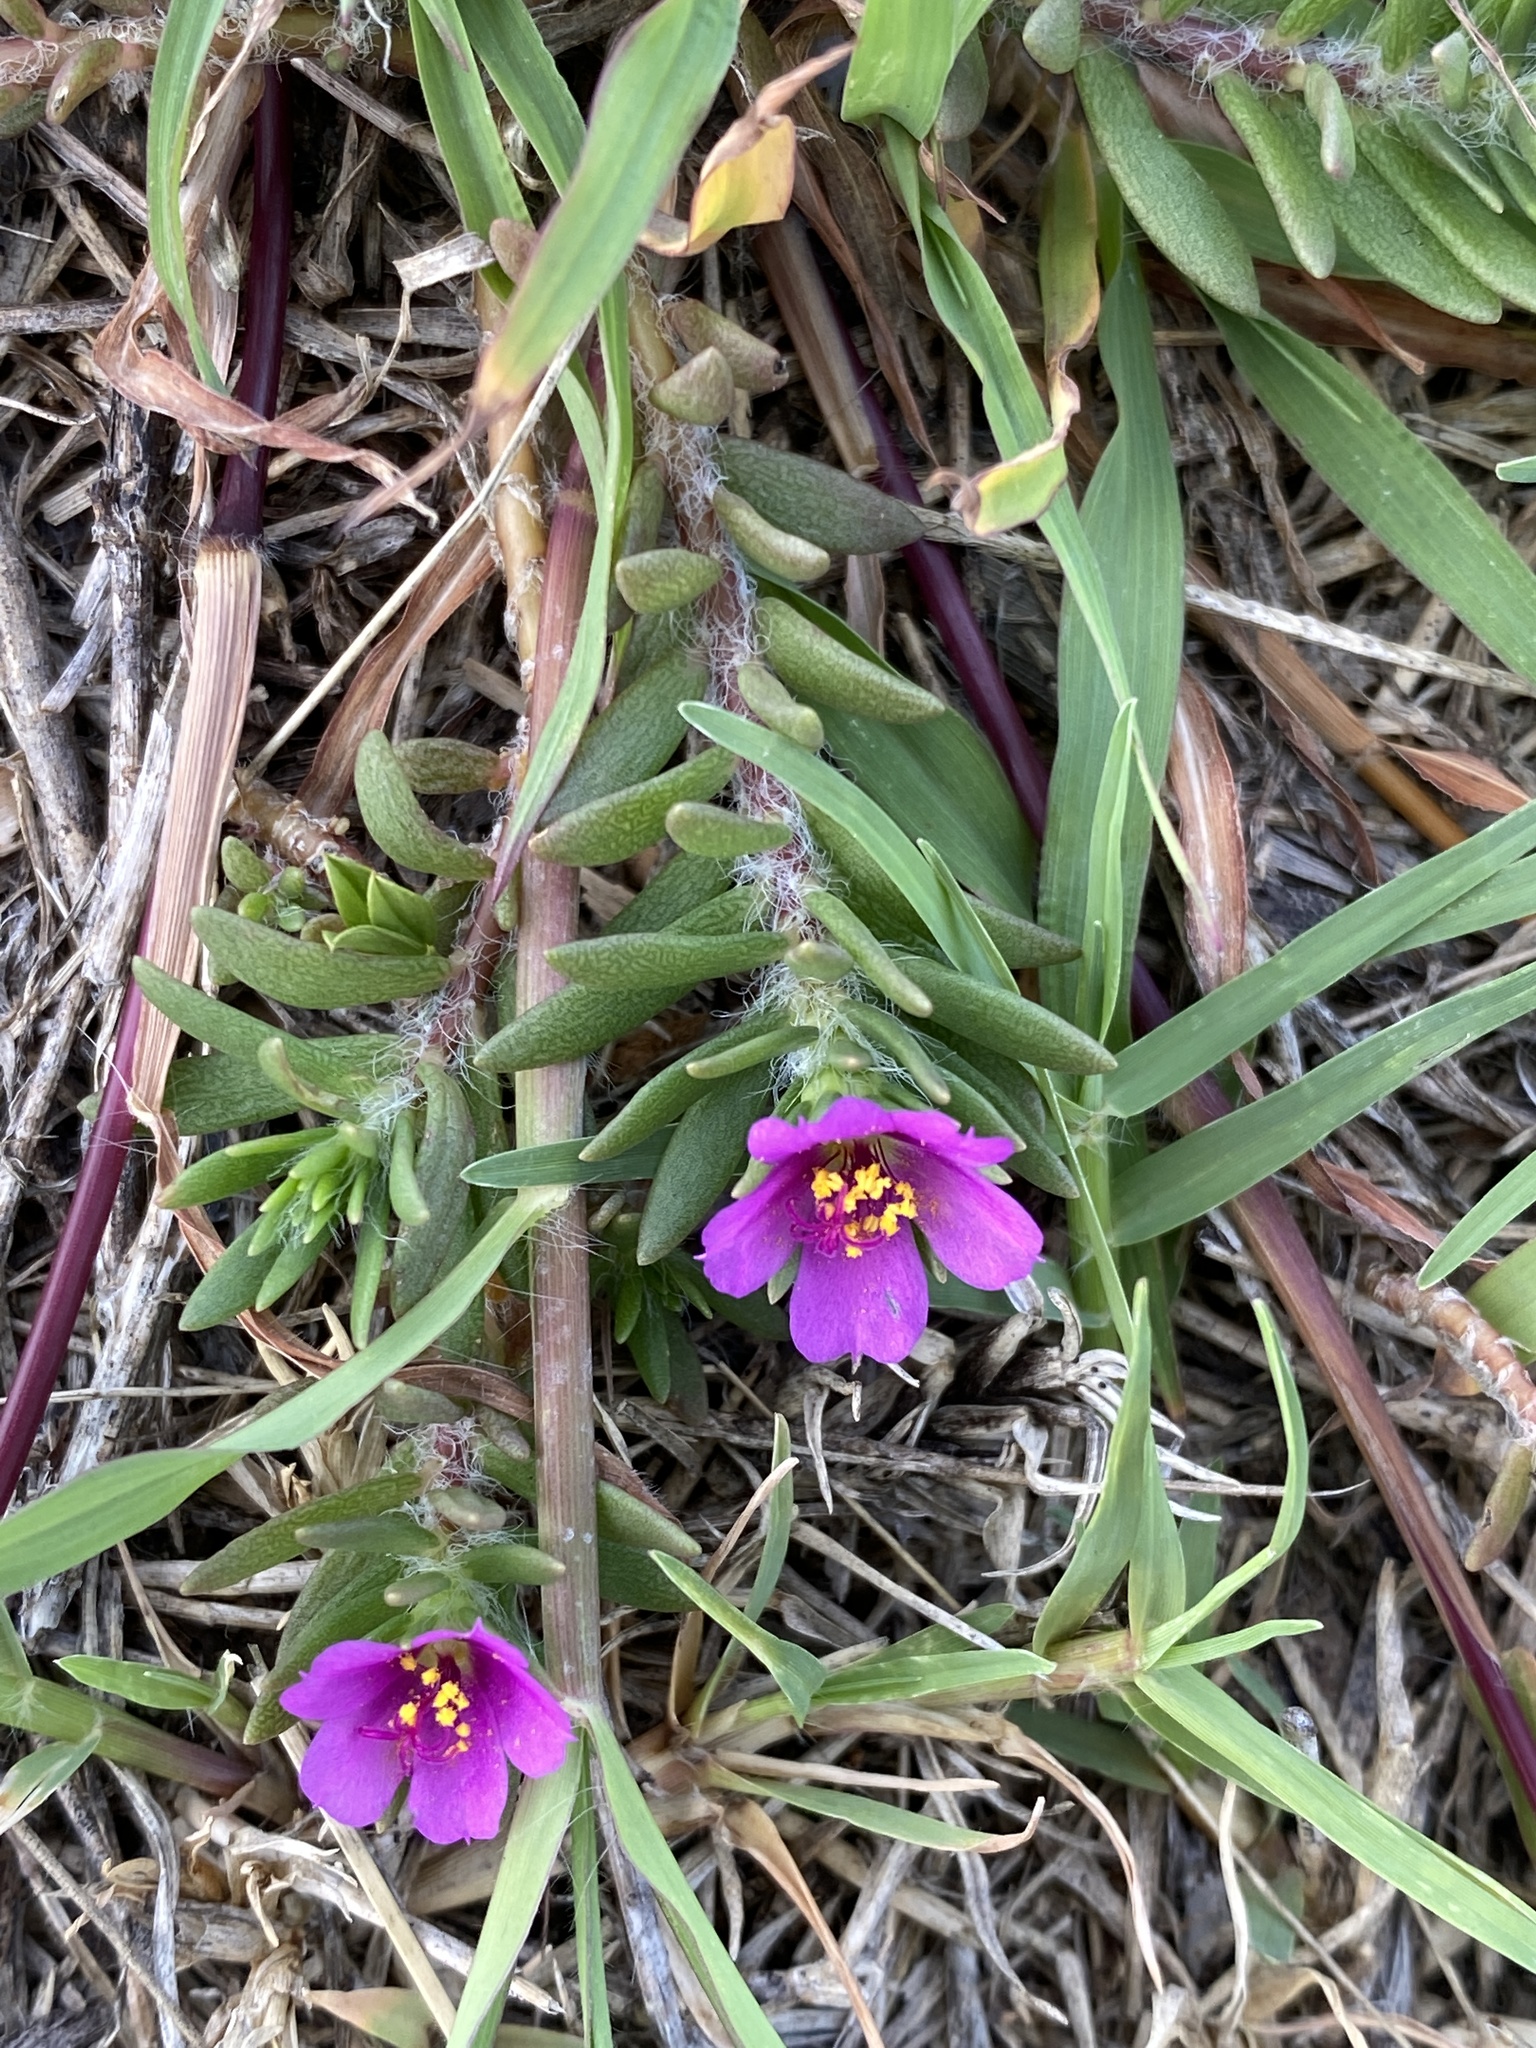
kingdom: Plantae
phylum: Tracheophyta
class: Magnoliopsida
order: Caryophyllales
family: Portulacaceae
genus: Portulaca
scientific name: Portulaca pilosa
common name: Kiss me quick
